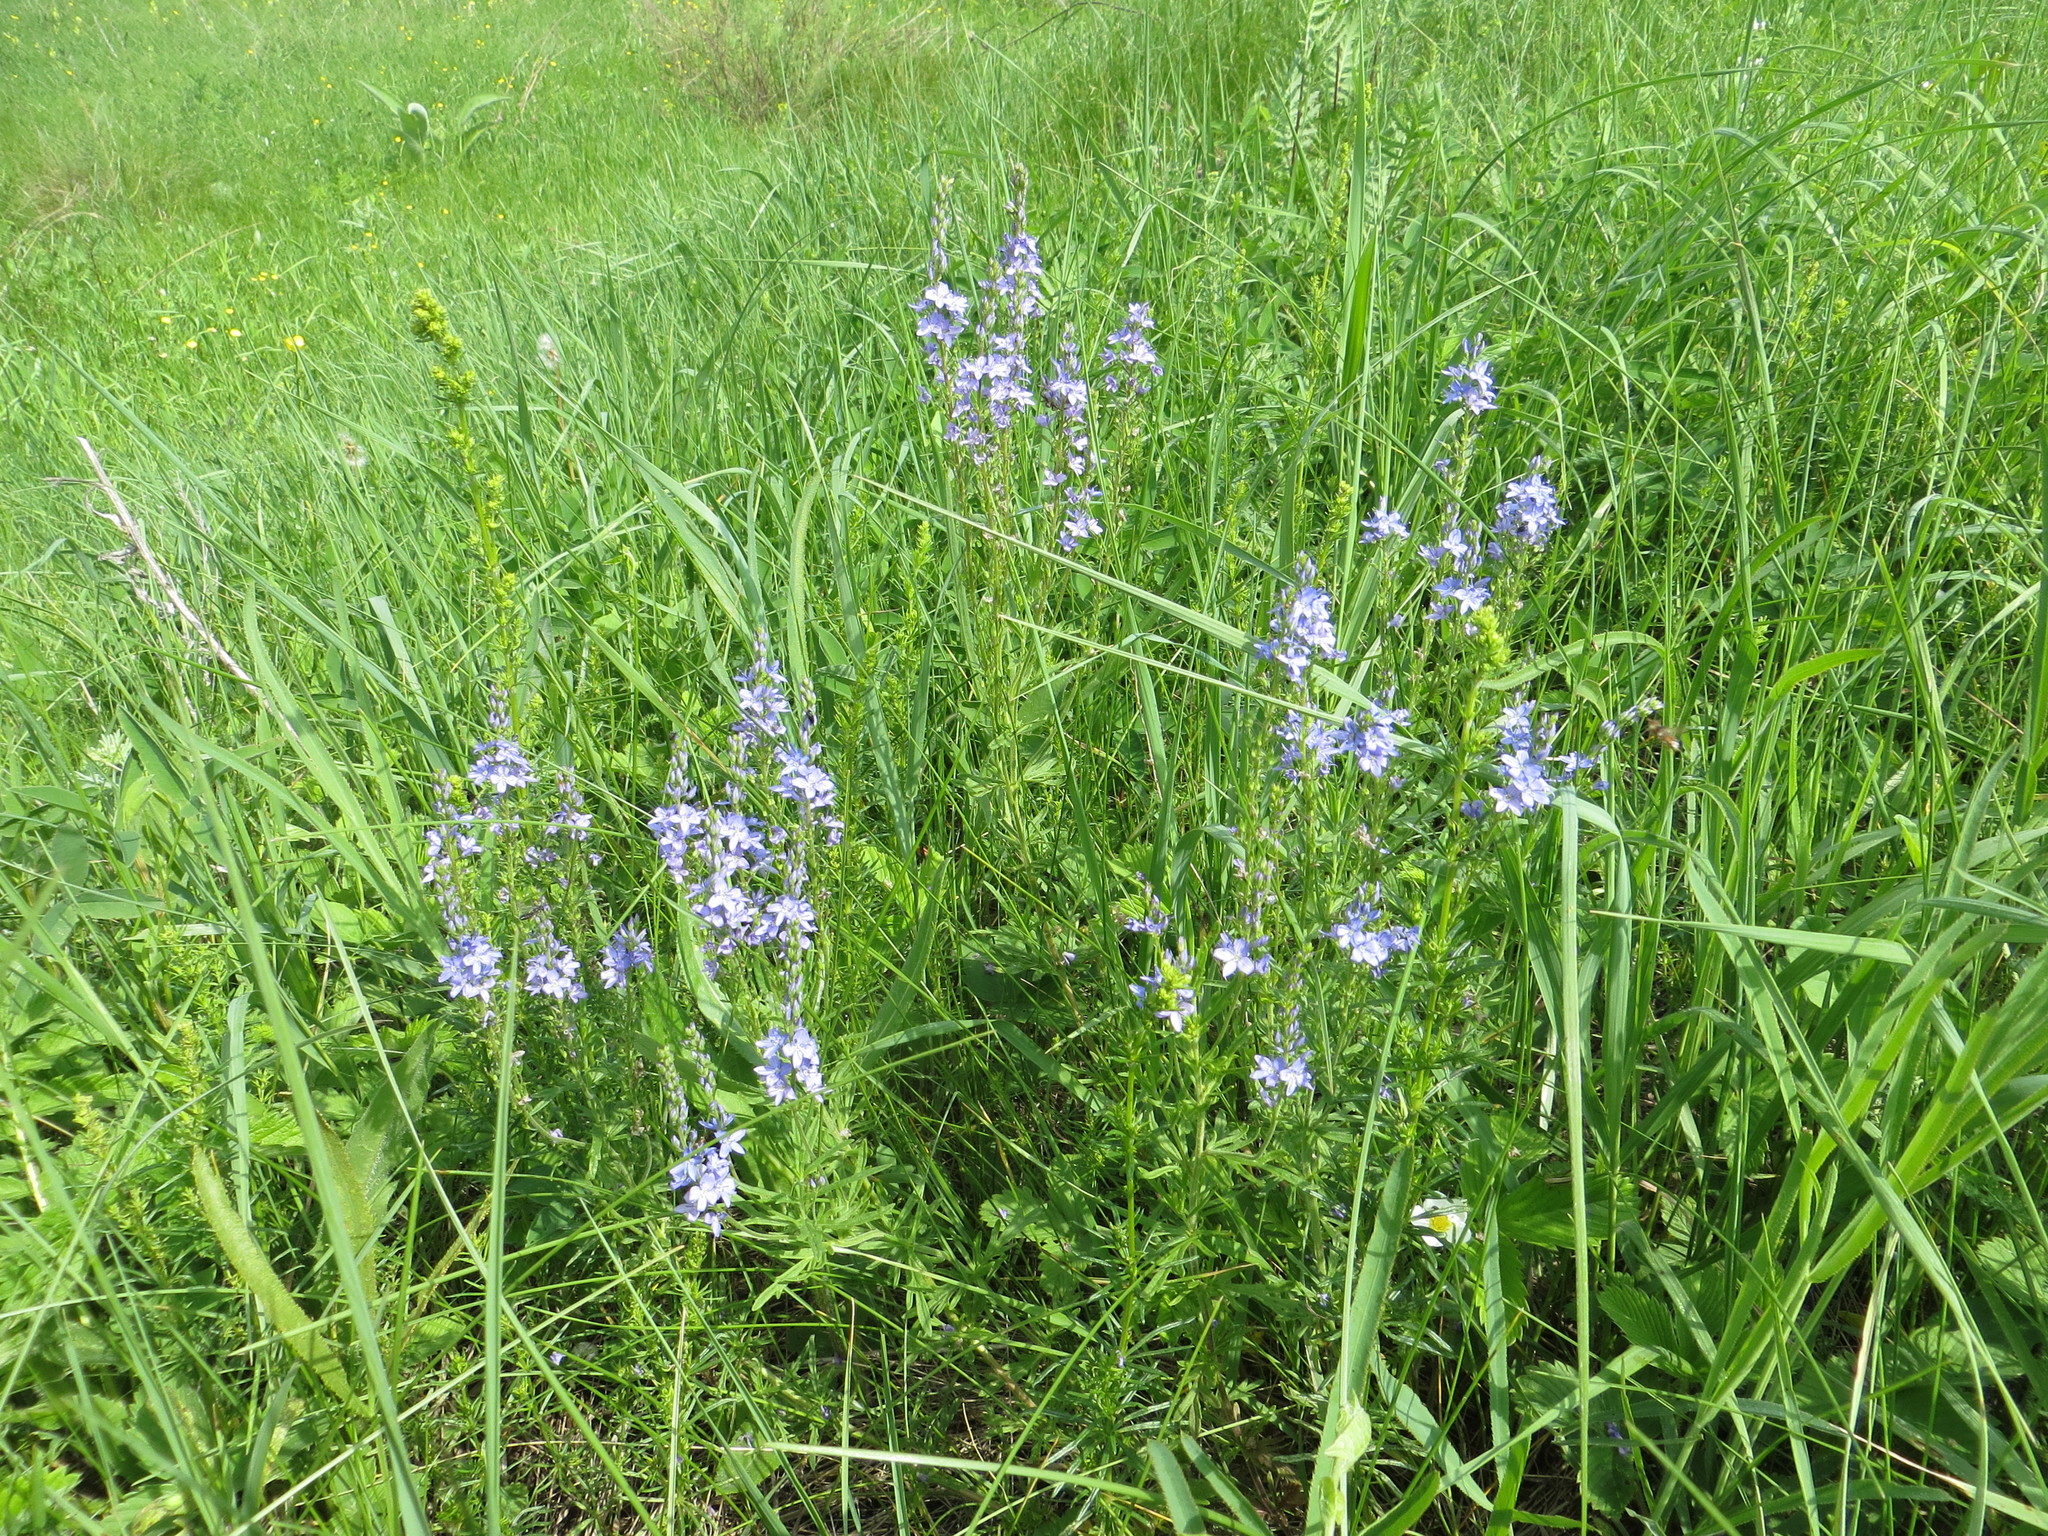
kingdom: Plantae
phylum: Tracheophyta
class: Magnoliopsida
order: Lamiales
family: Plantaginaceae
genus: Veronica
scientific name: Veronica austriaca
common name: Large speedwell
